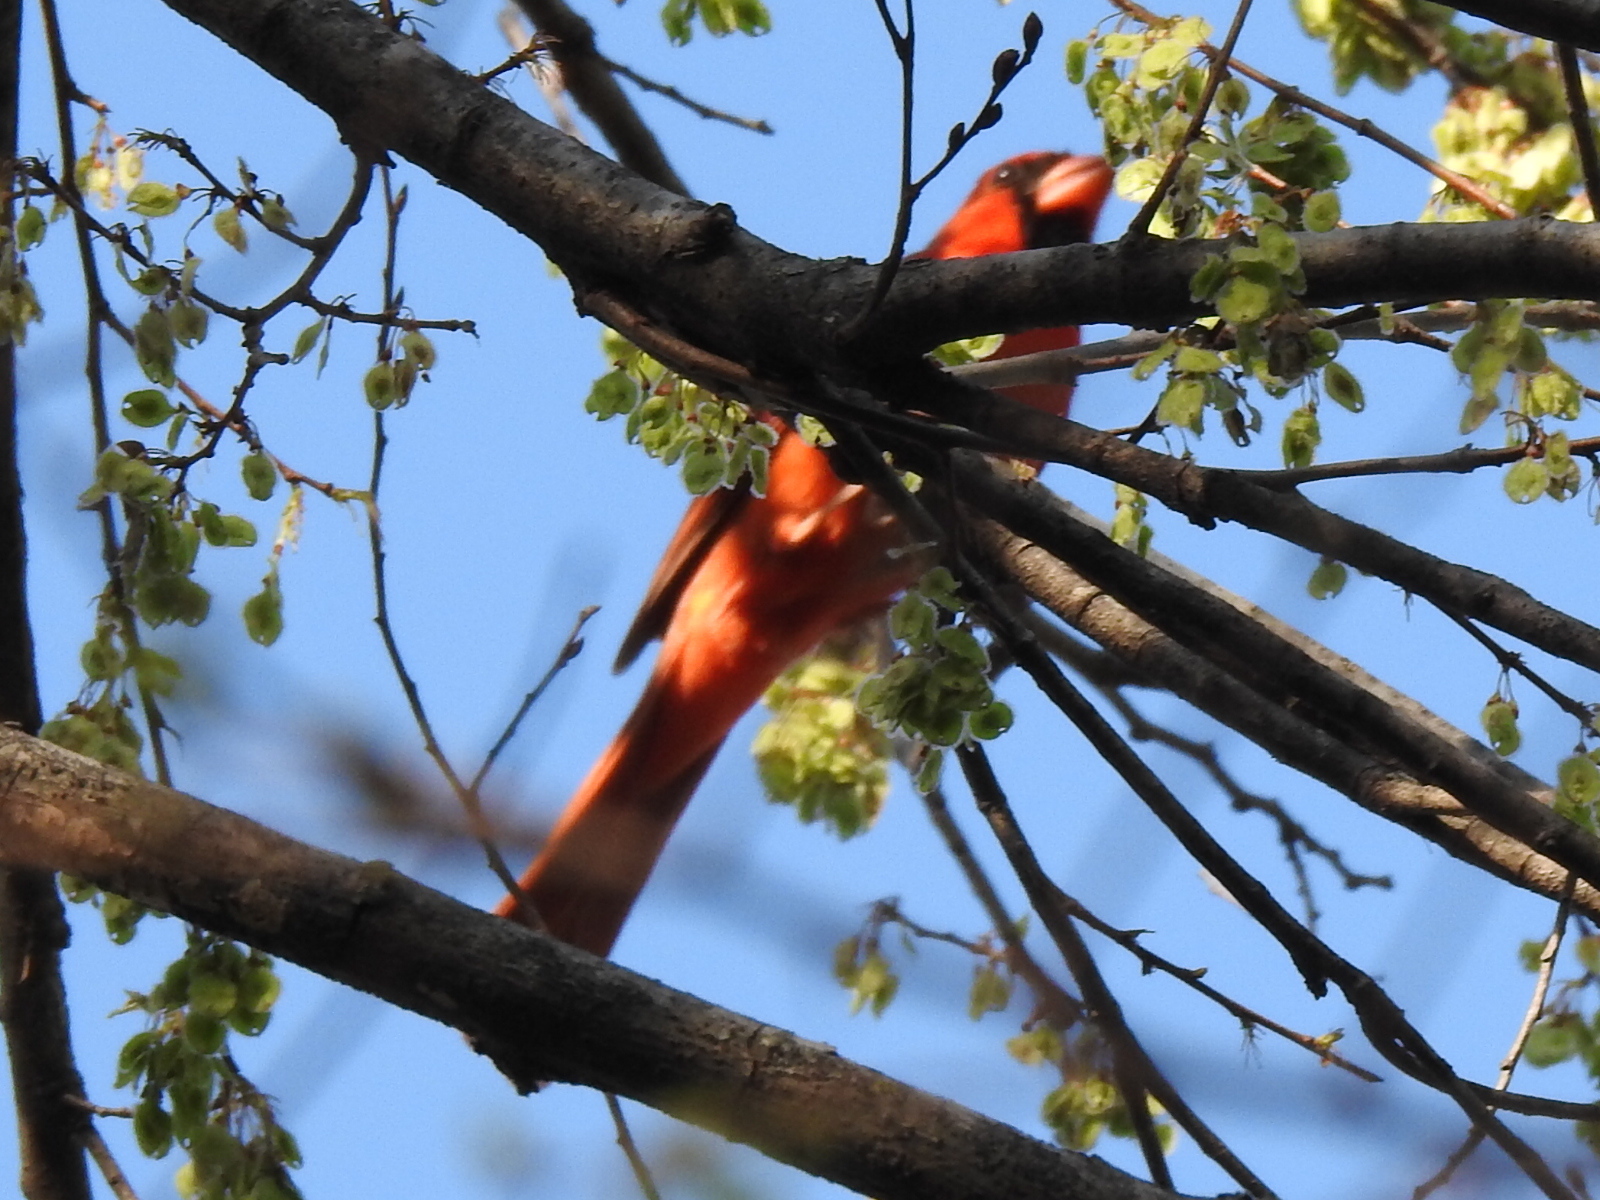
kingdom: Animalia
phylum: Chordata
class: Aves
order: Passeriformes
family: Cardinalidae
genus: Cardinalis
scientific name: Cardinalis cardinalis
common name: Northern cardinal
